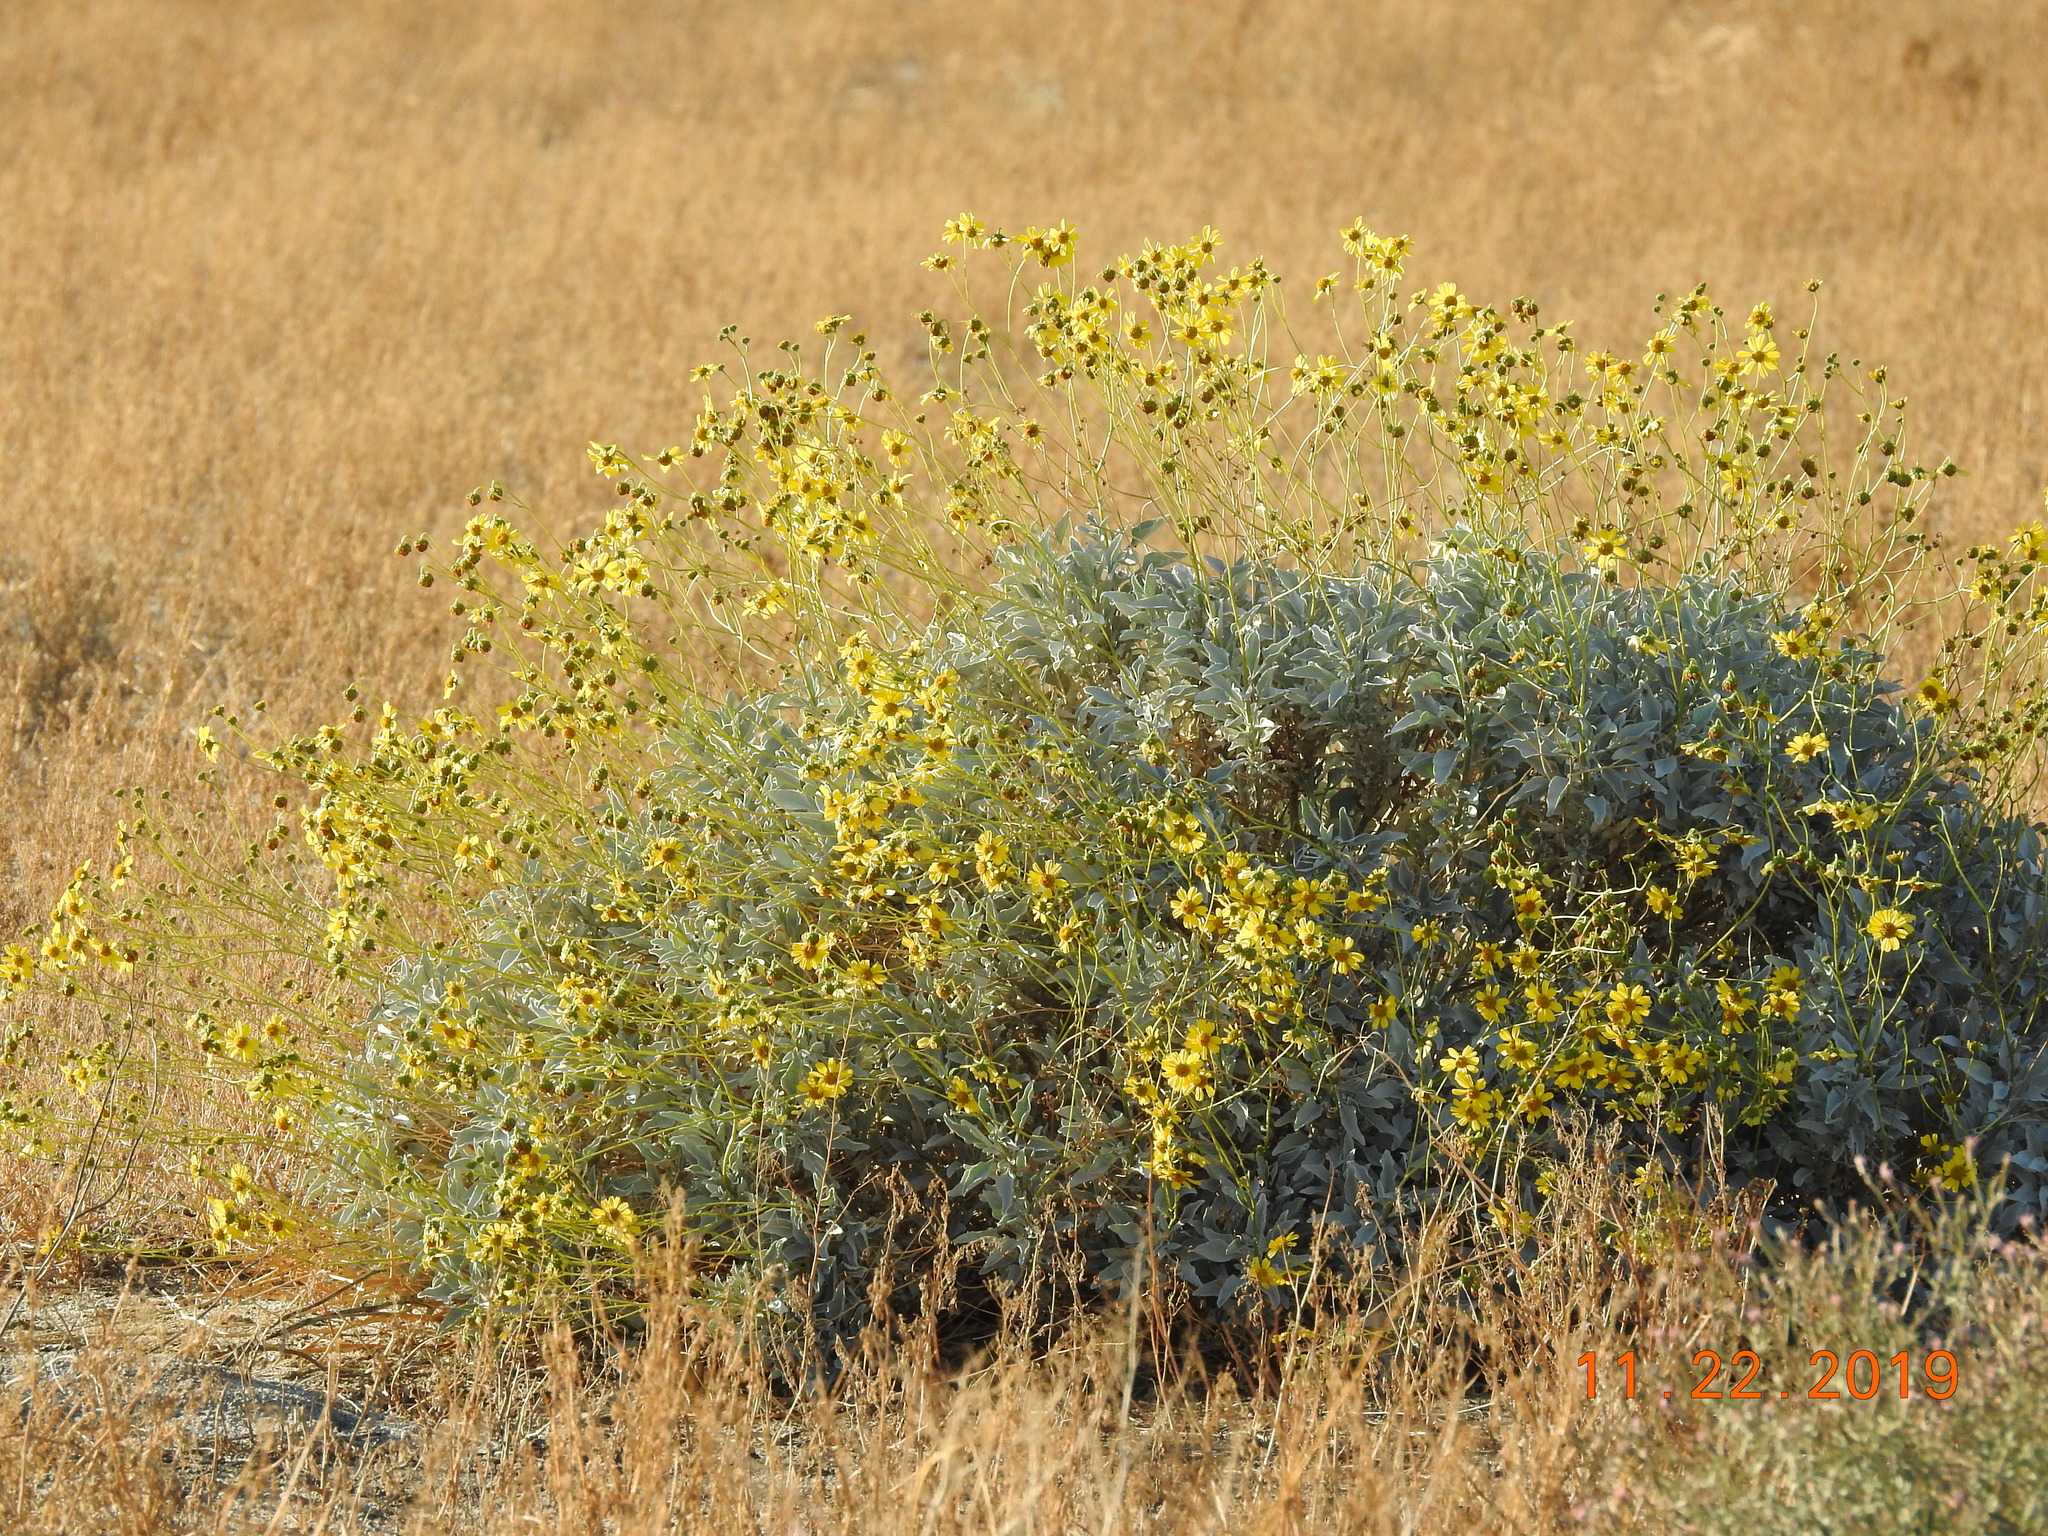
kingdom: Plantae
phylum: Tracheophyta
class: Magnoliopsida
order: Asterales
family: Asteraceae
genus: Encelia
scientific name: Encelia farinosa
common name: Brittlebush
